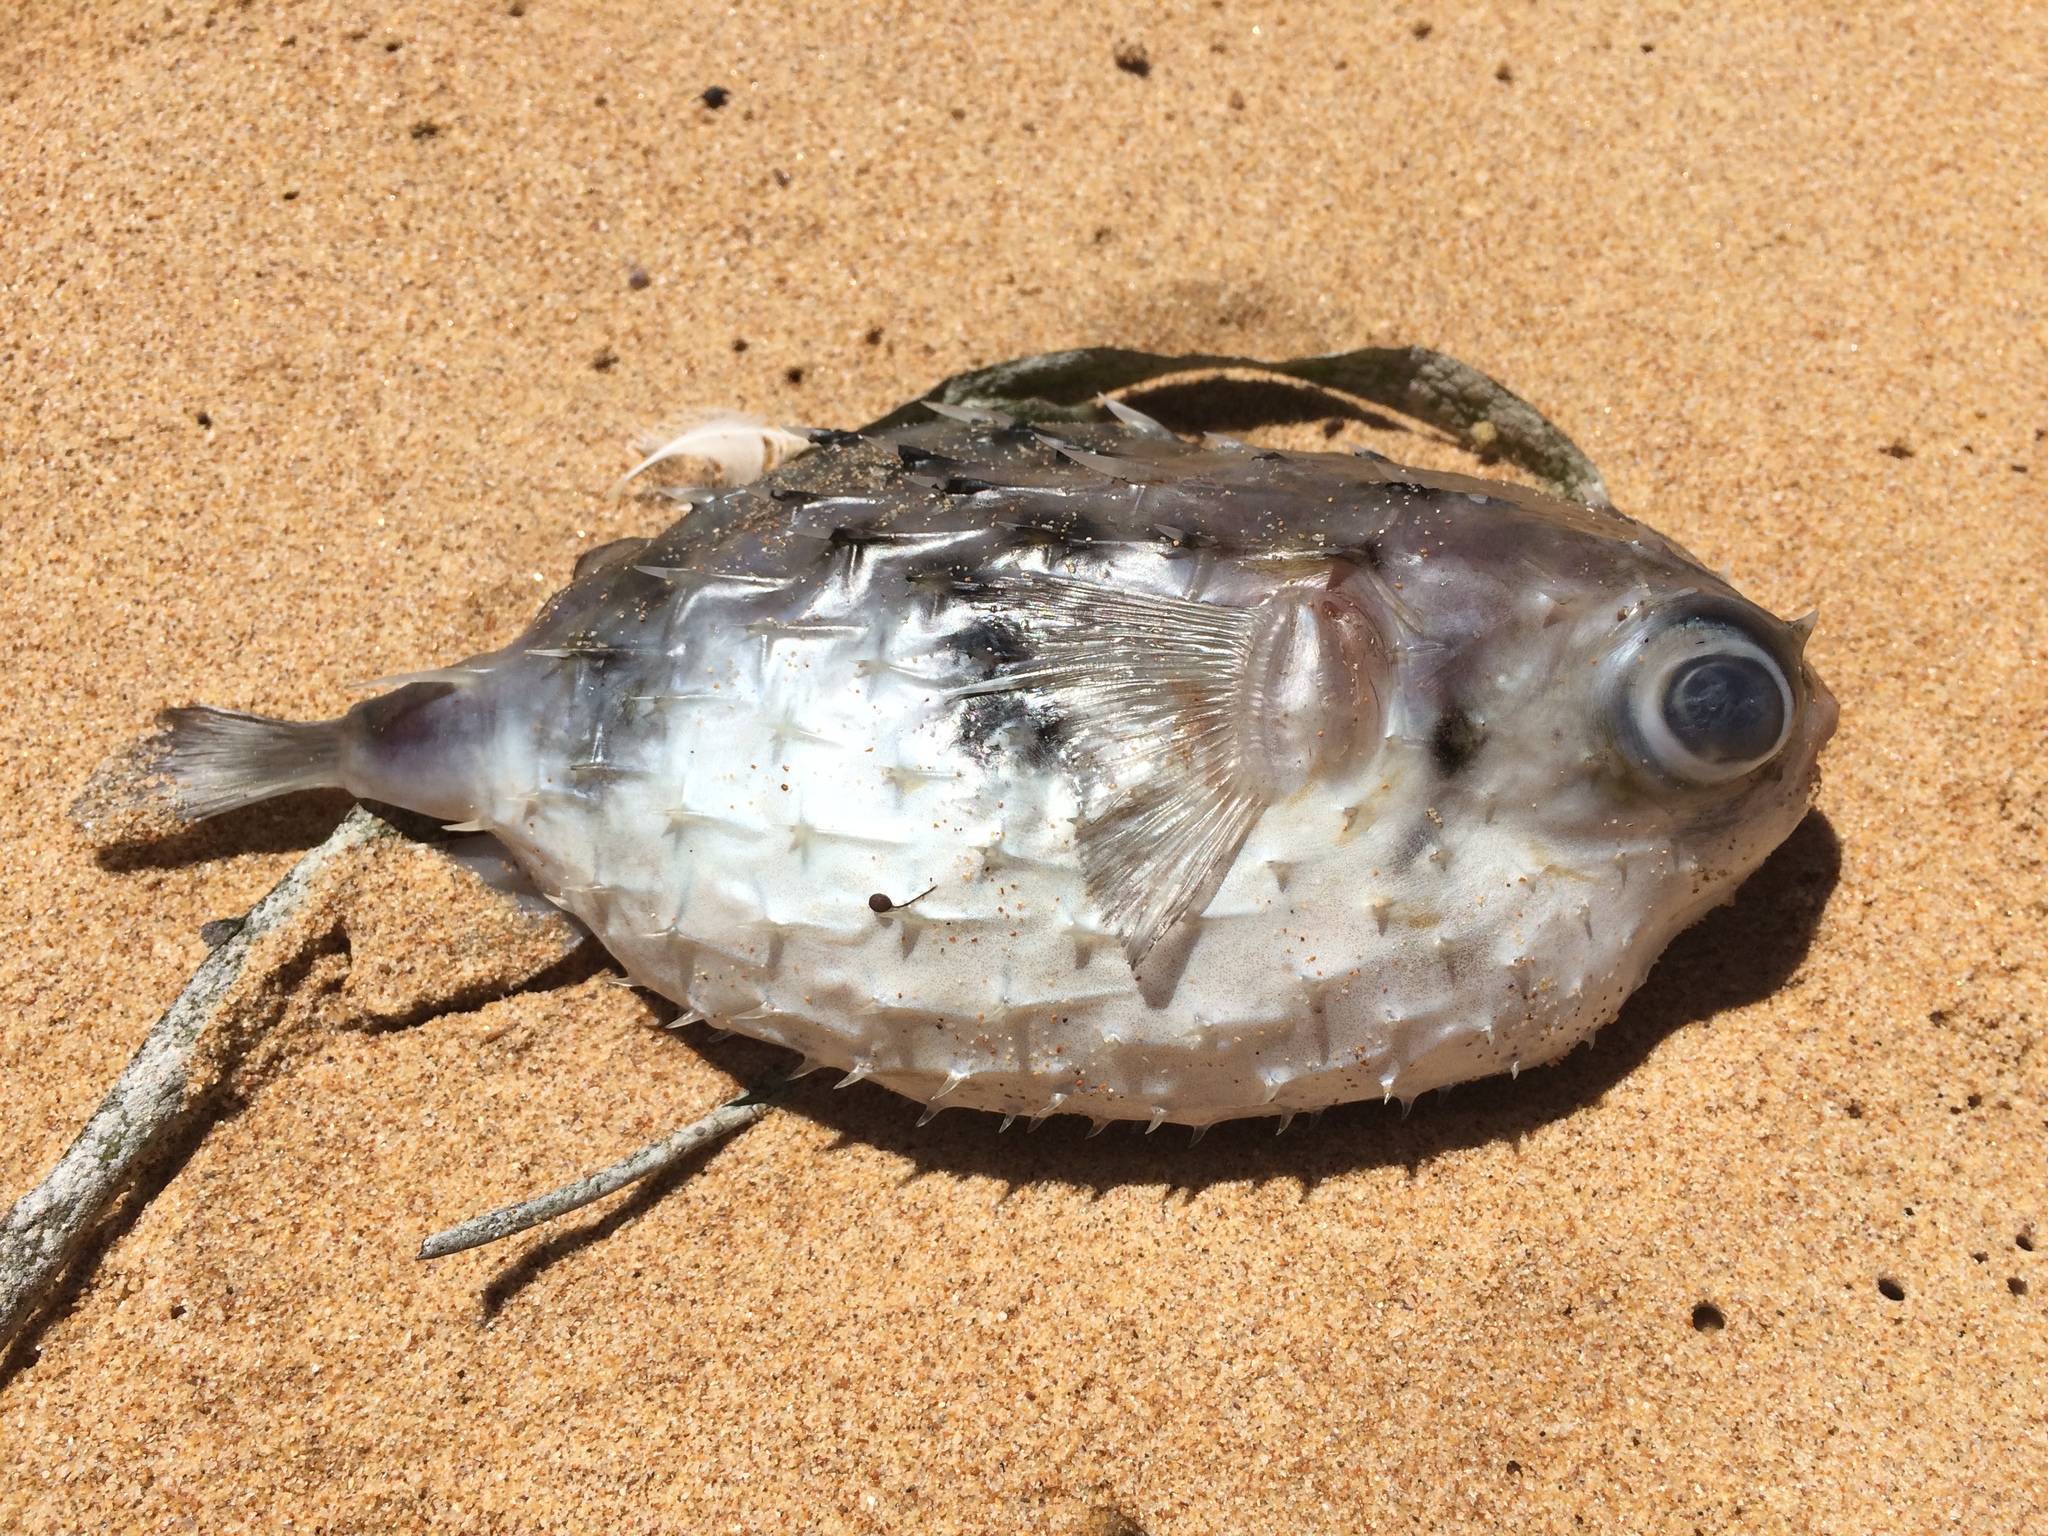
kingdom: Animalia
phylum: Chordata
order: Tetraodontiformes
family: Diodontidae
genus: Allomycterus
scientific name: Allomycterus pilatus
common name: No common name
